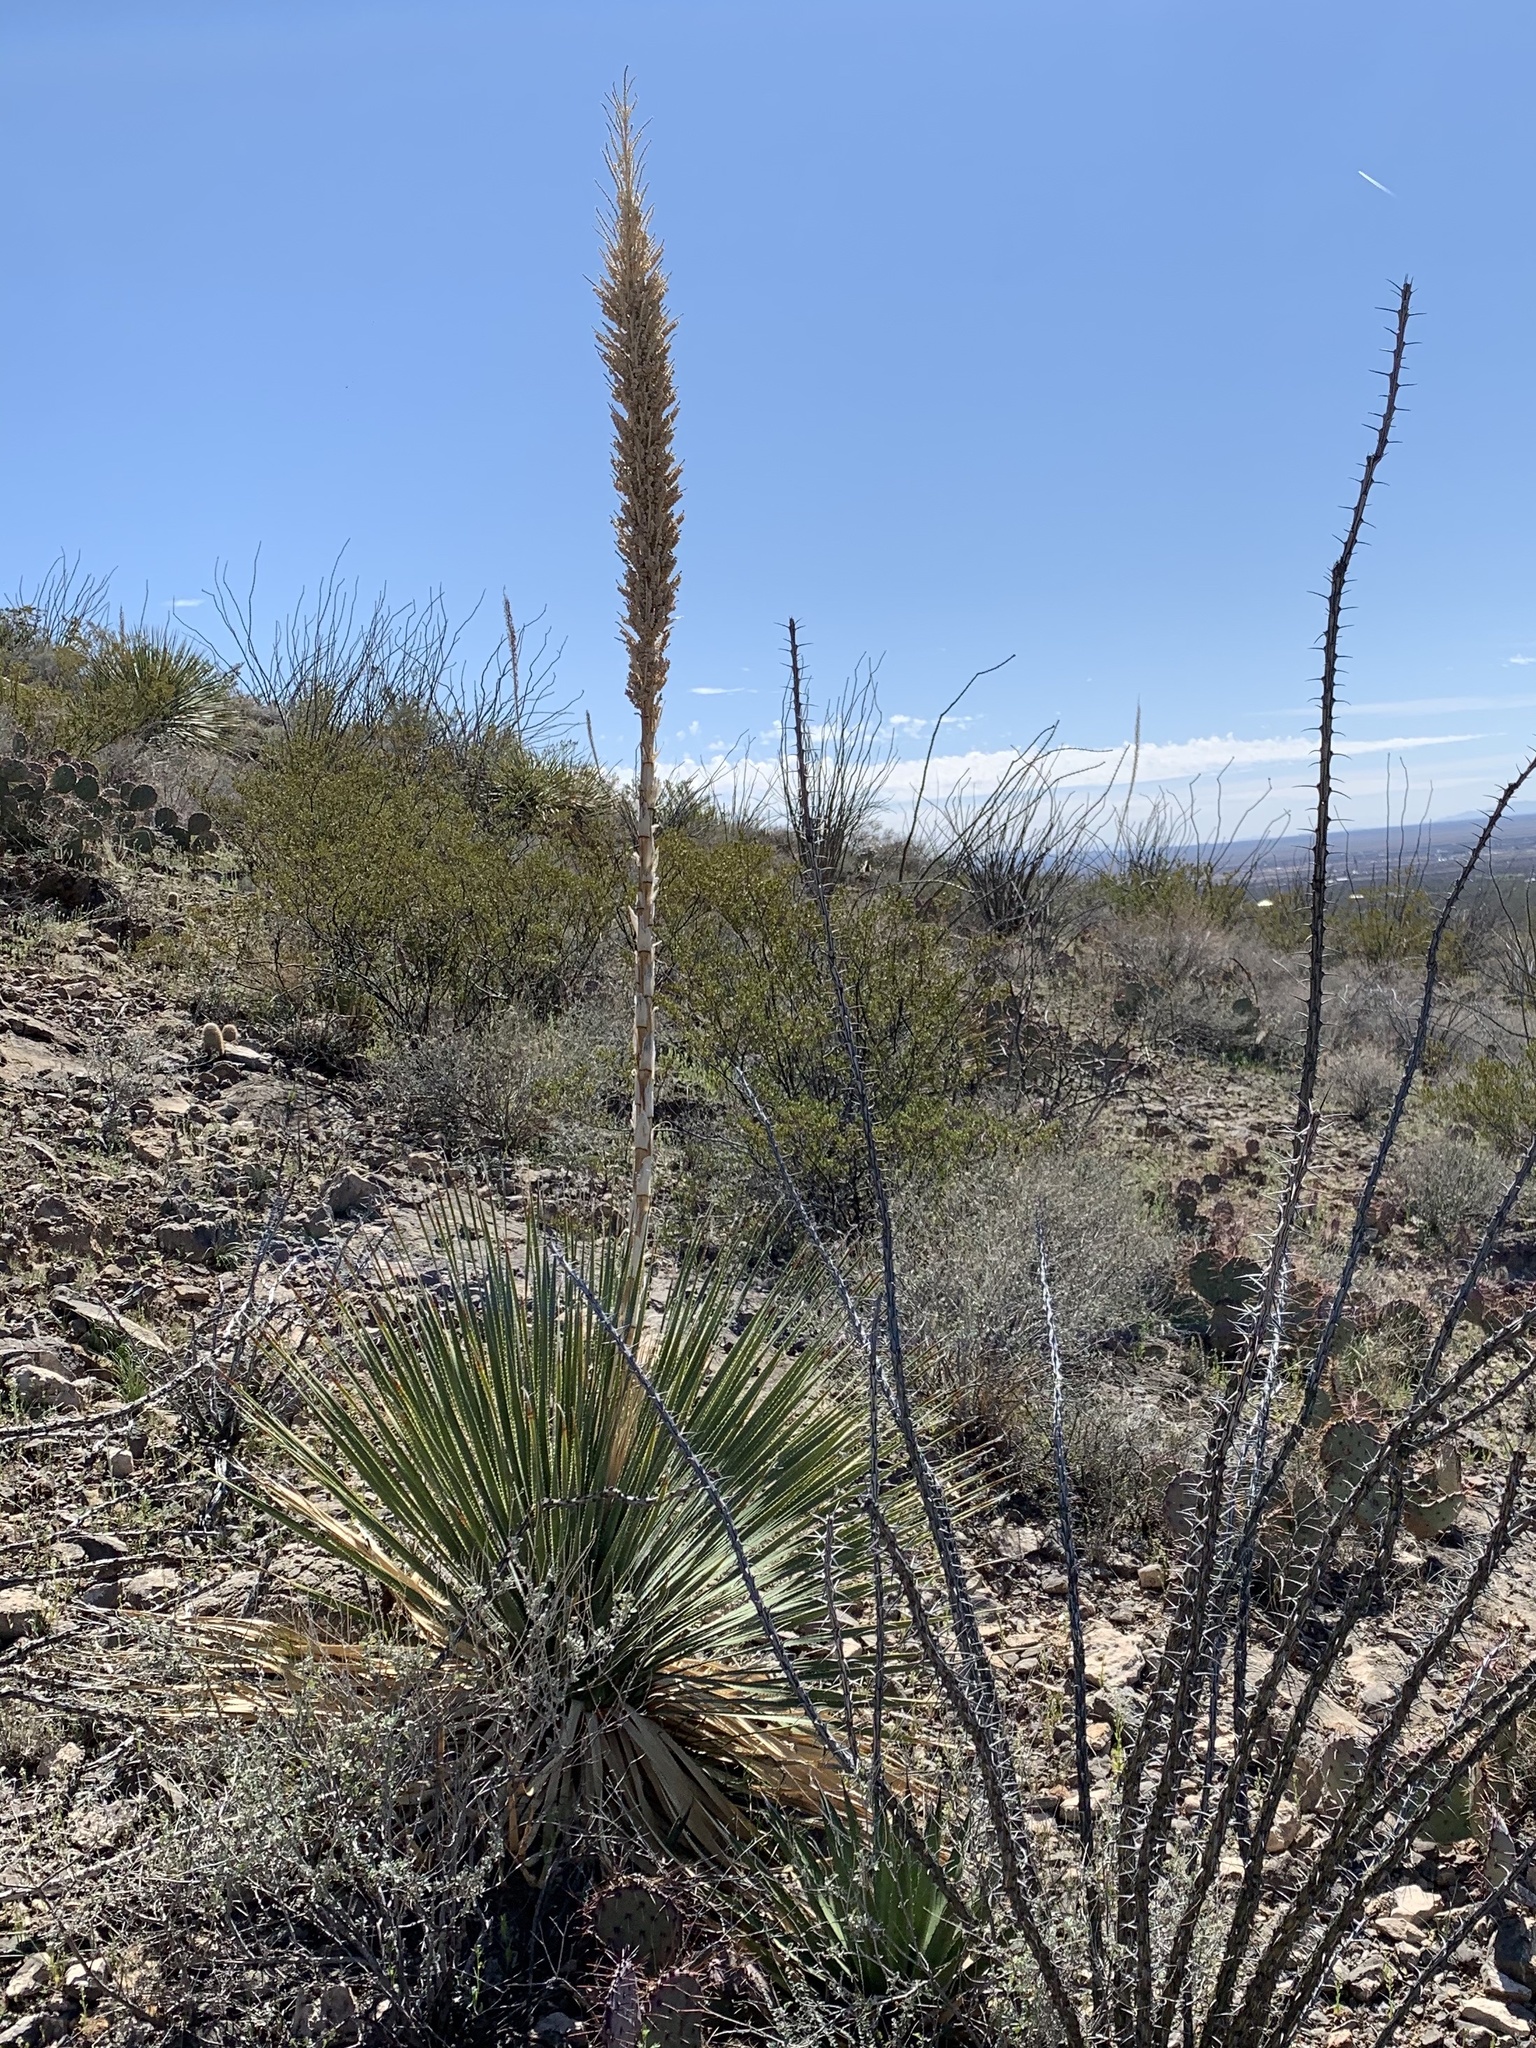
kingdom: Plantae
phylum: Tracheophyta
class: Liliopsida
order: Asparagales
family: Asparagaceae
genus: Dasylirion
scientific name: Dasylirion wheeleri
